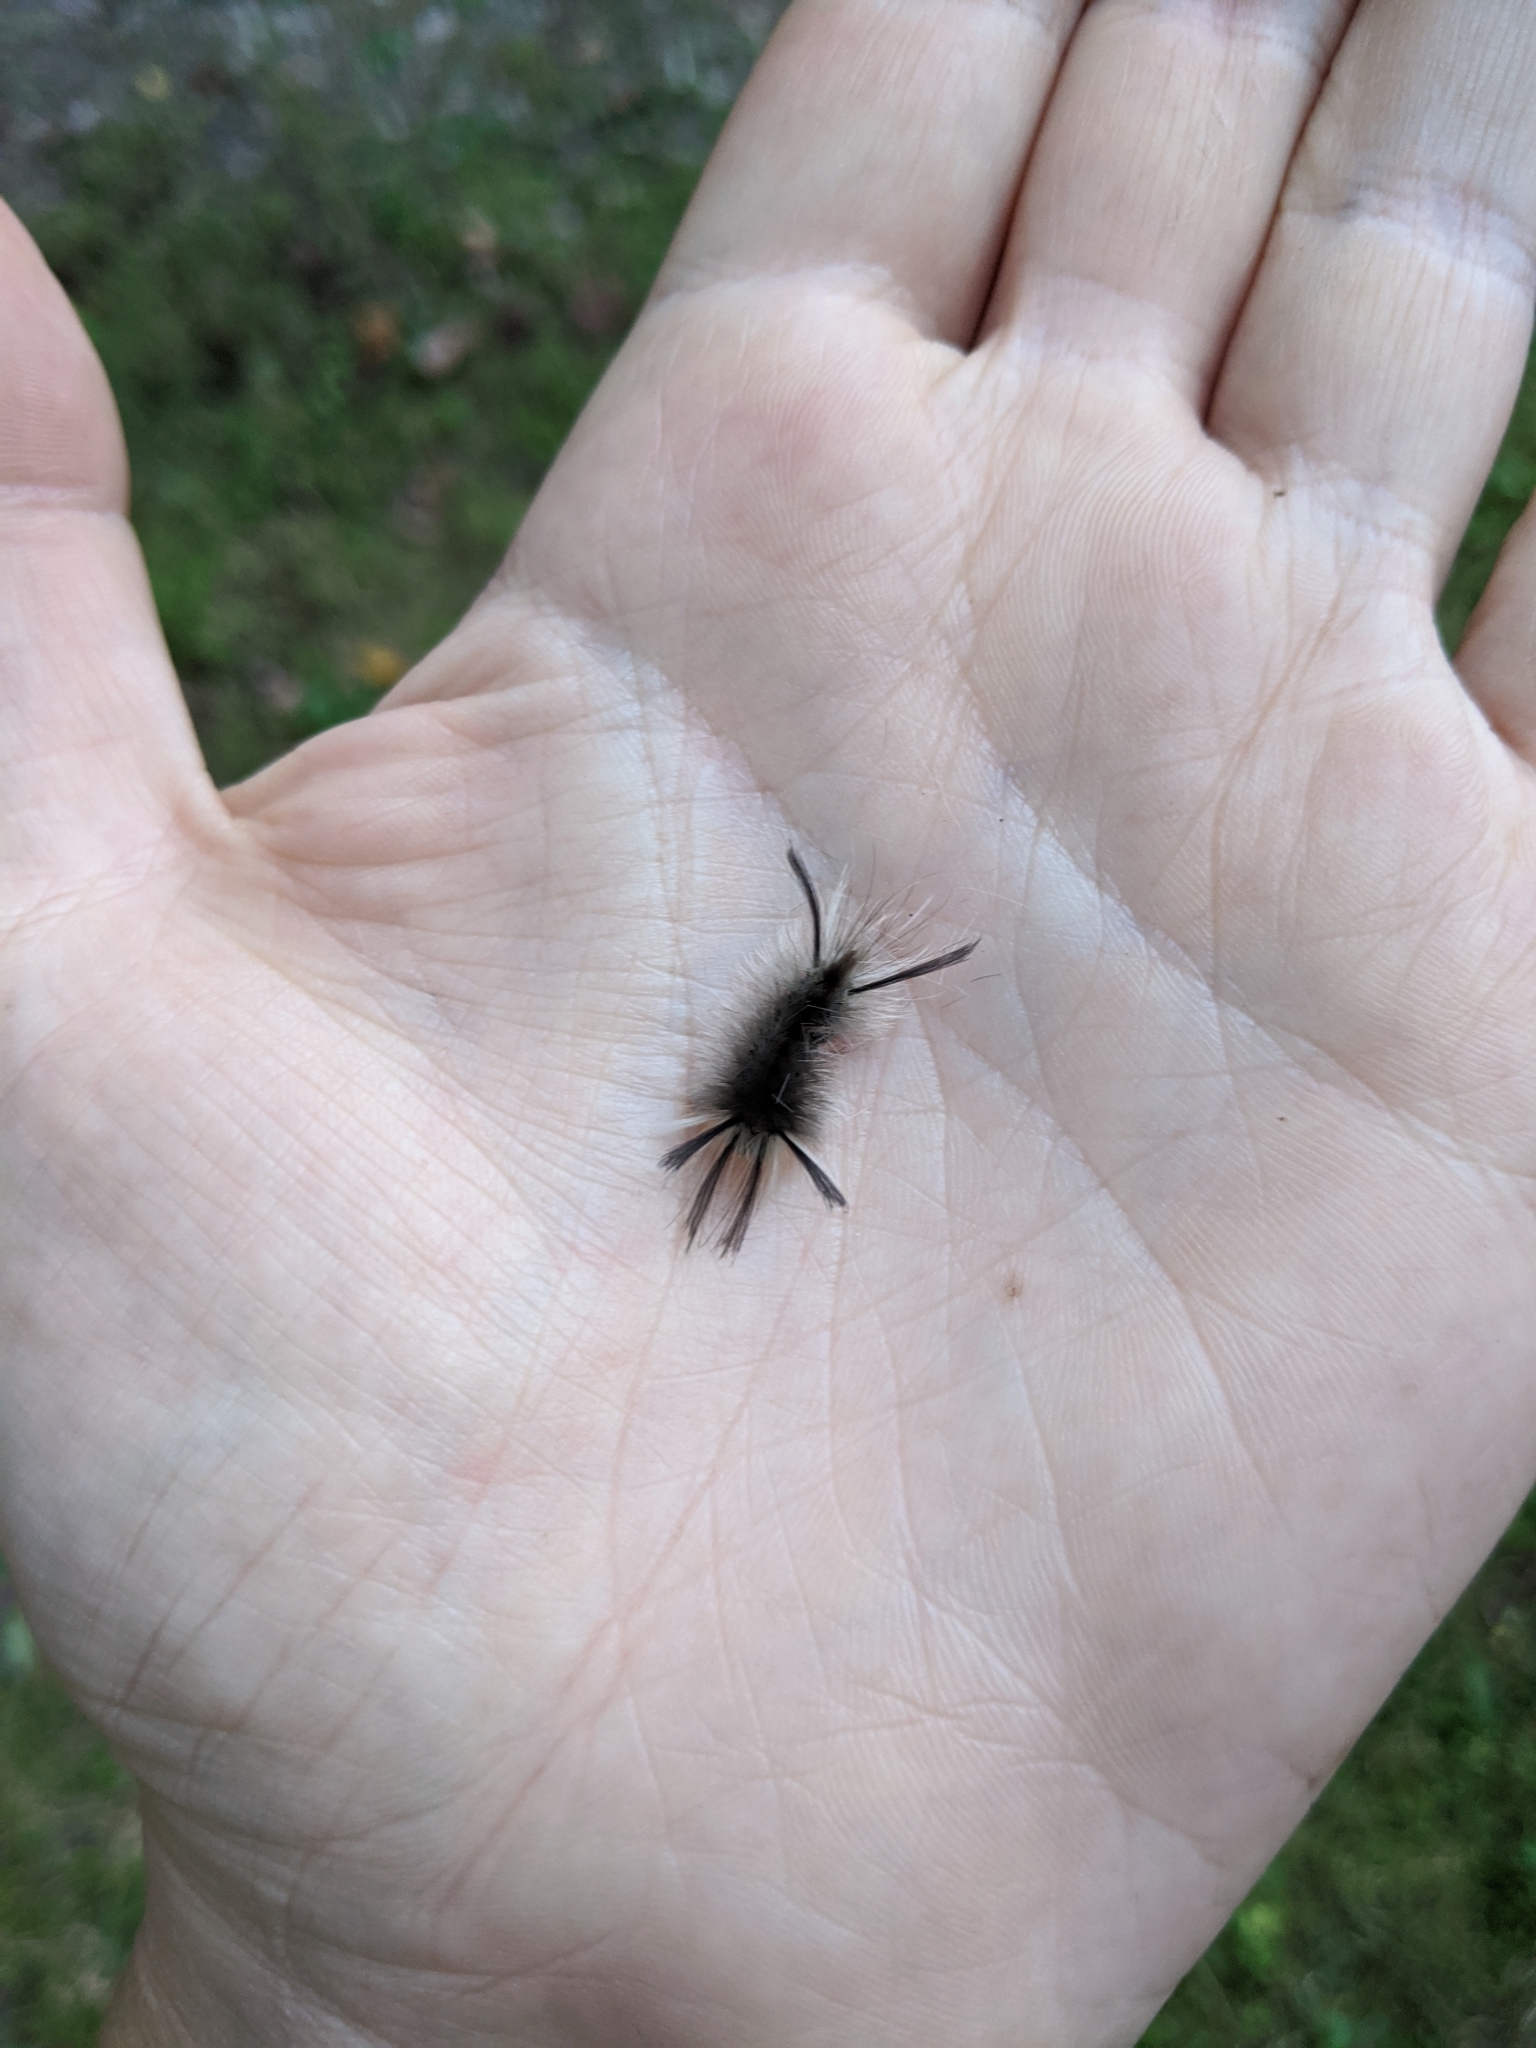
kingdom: Animalia
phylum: Arthropoda
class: Insecta
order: Lepidoptera
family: Erebidae
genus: Halysidota
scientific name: Halysidota tessellaris
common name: Banded tussock moth
